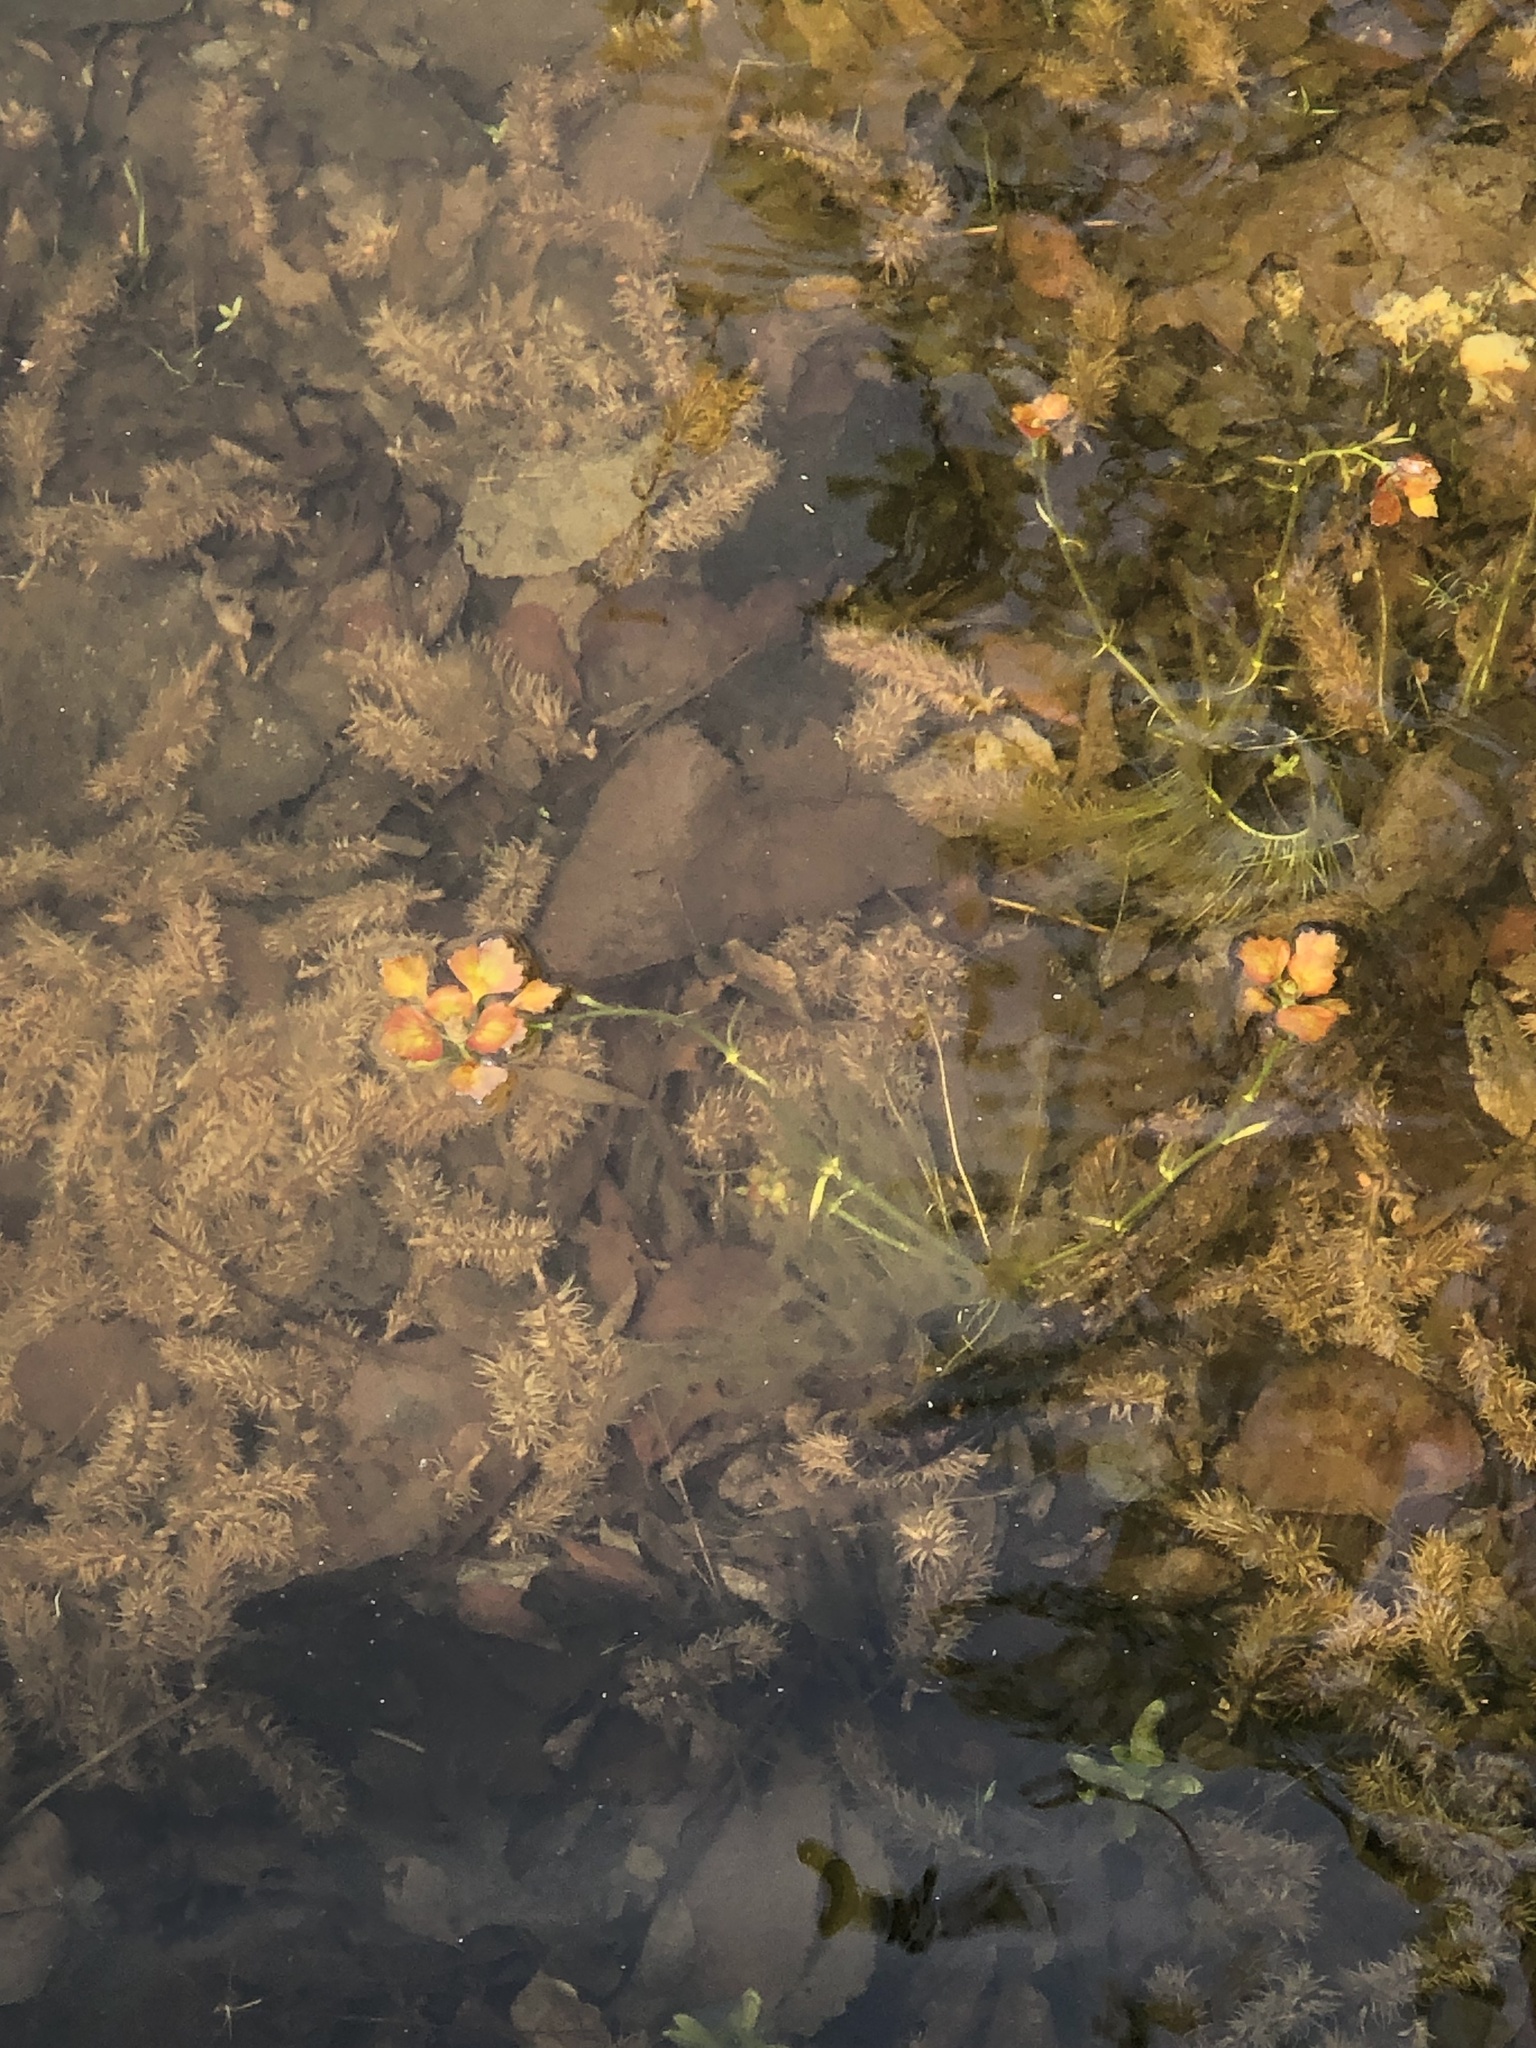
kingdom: Plantae
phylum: Tracheophyta
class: Magnoliopsida
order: Myrtales
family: Lythraceae
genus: Trapa
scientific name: Trapa natans
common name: Water chestnut
